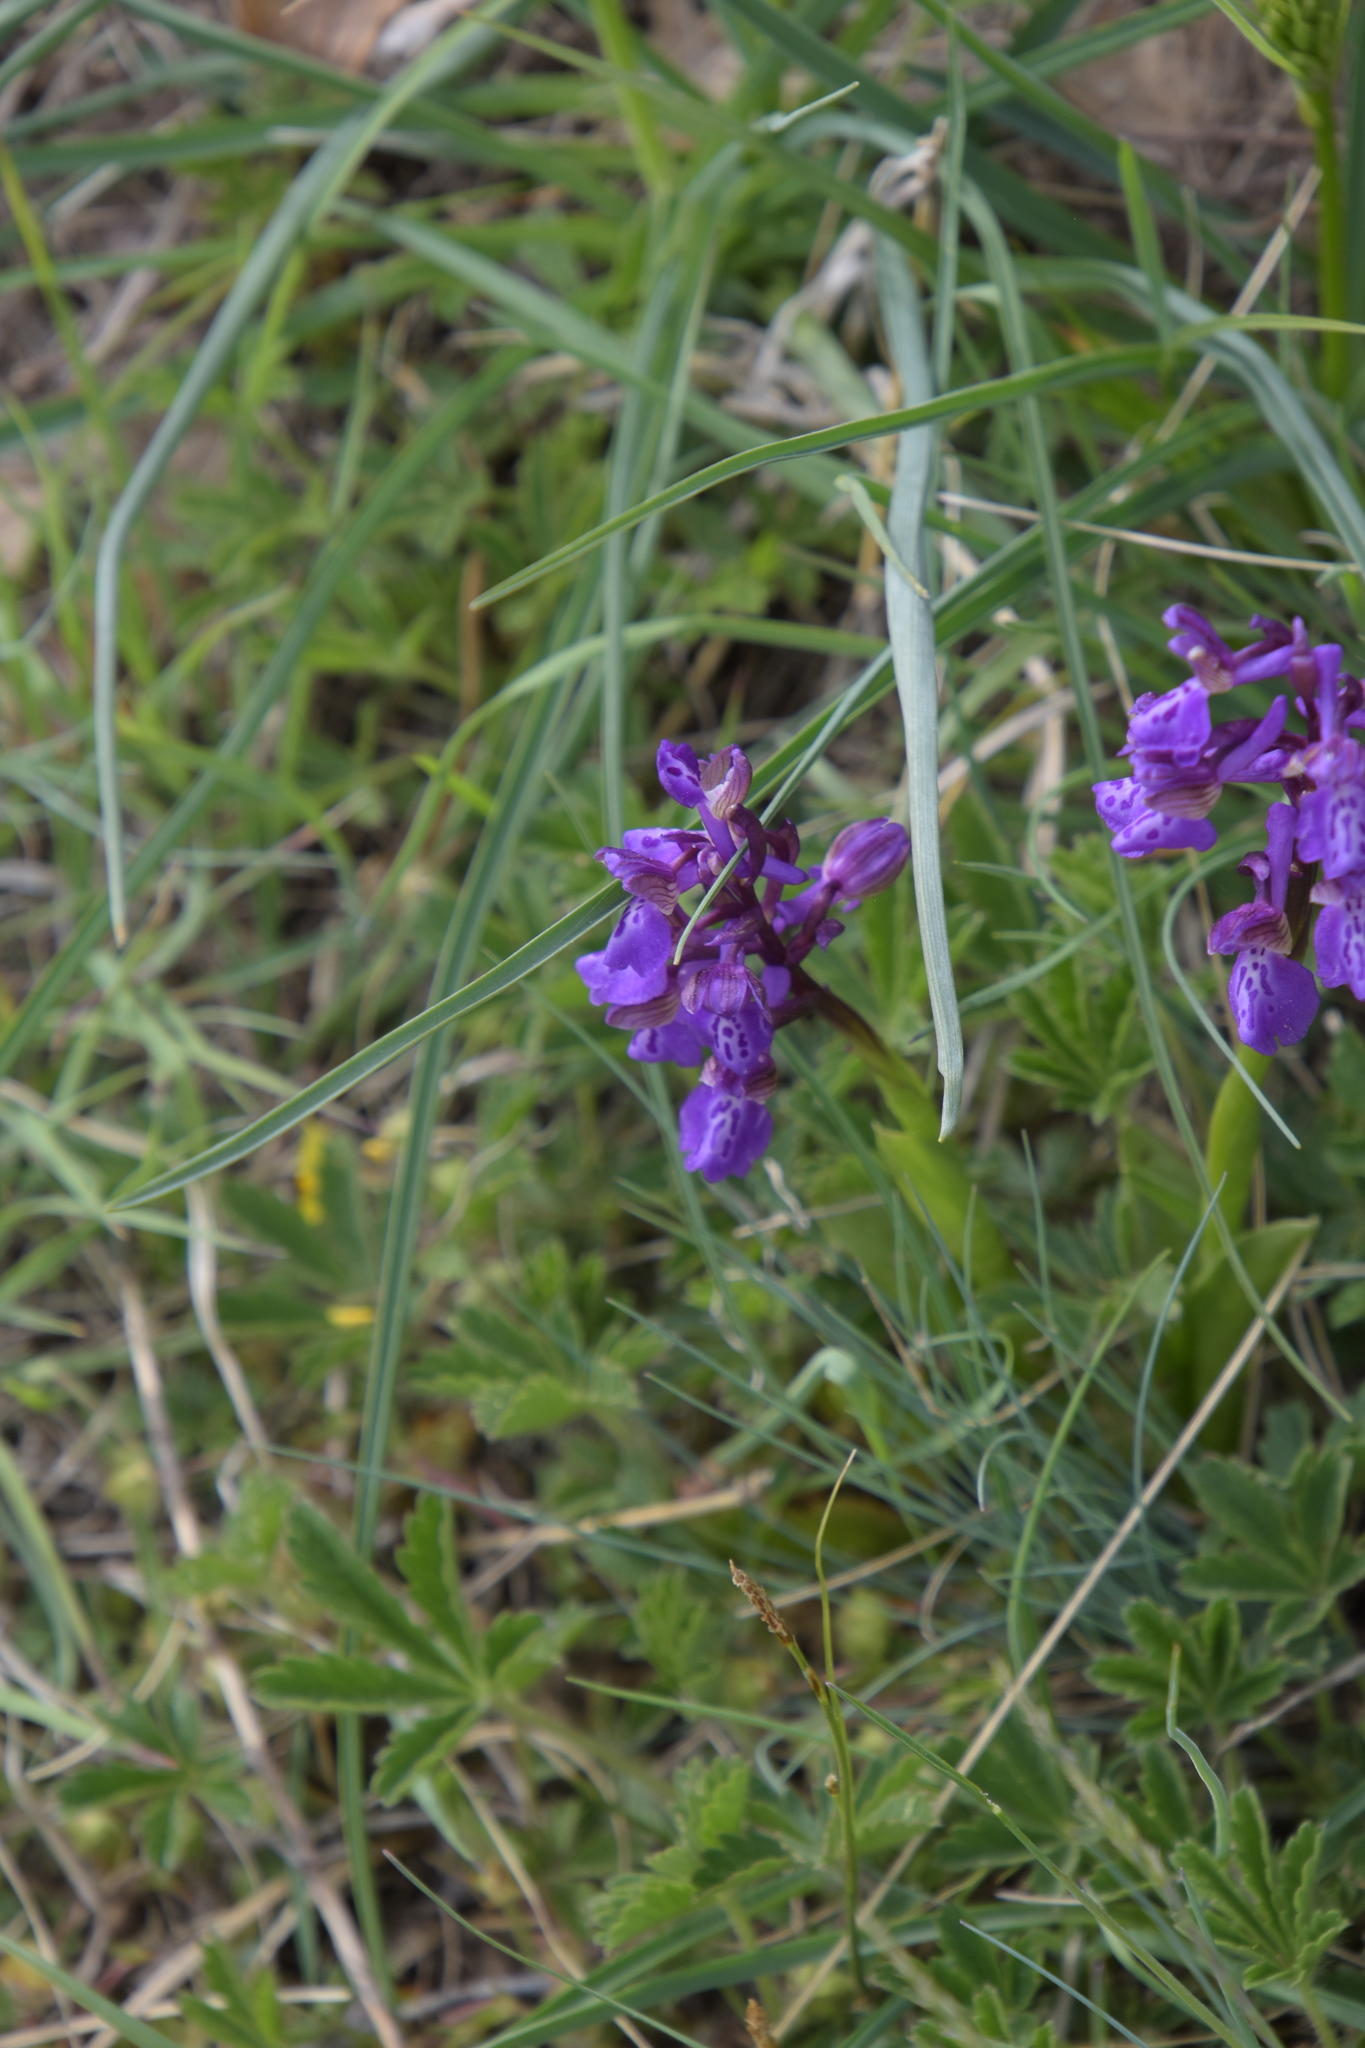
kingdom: Plantae
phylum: Tracheophyta
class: Liliopsida
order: Asparagales
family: Orchidaceae
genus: Anacamptis
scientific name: Anacamptis morio
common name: Green-winged orchid
